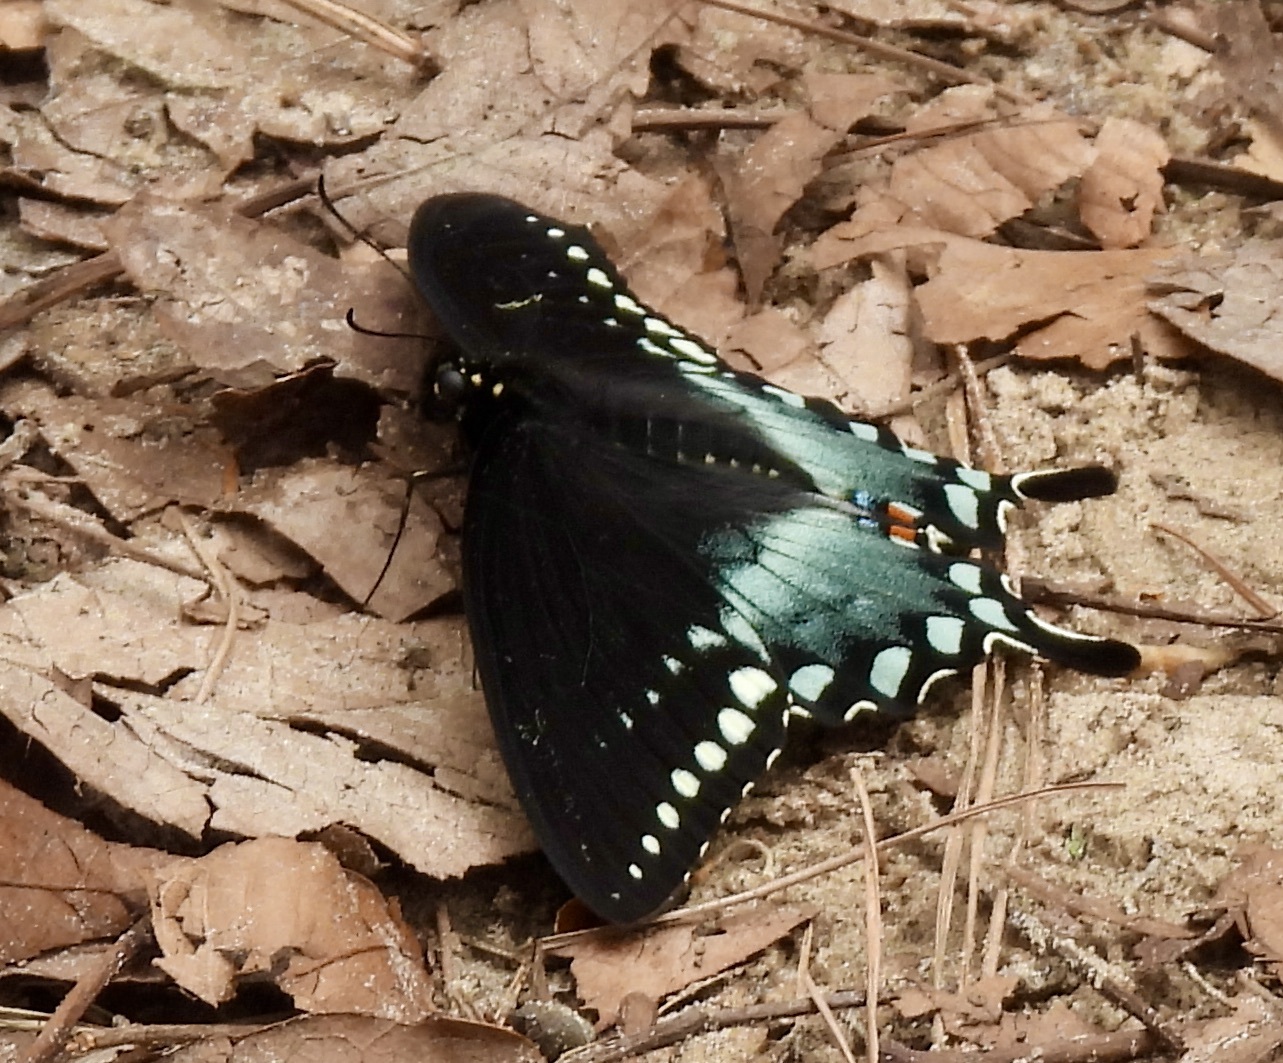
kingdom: Animalia
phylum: Arthropoda
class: Insecta
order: Lepidoptera
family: Papilionidae
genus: Papilio
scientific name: Papilio troilus
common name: Spicebush swallowtail
